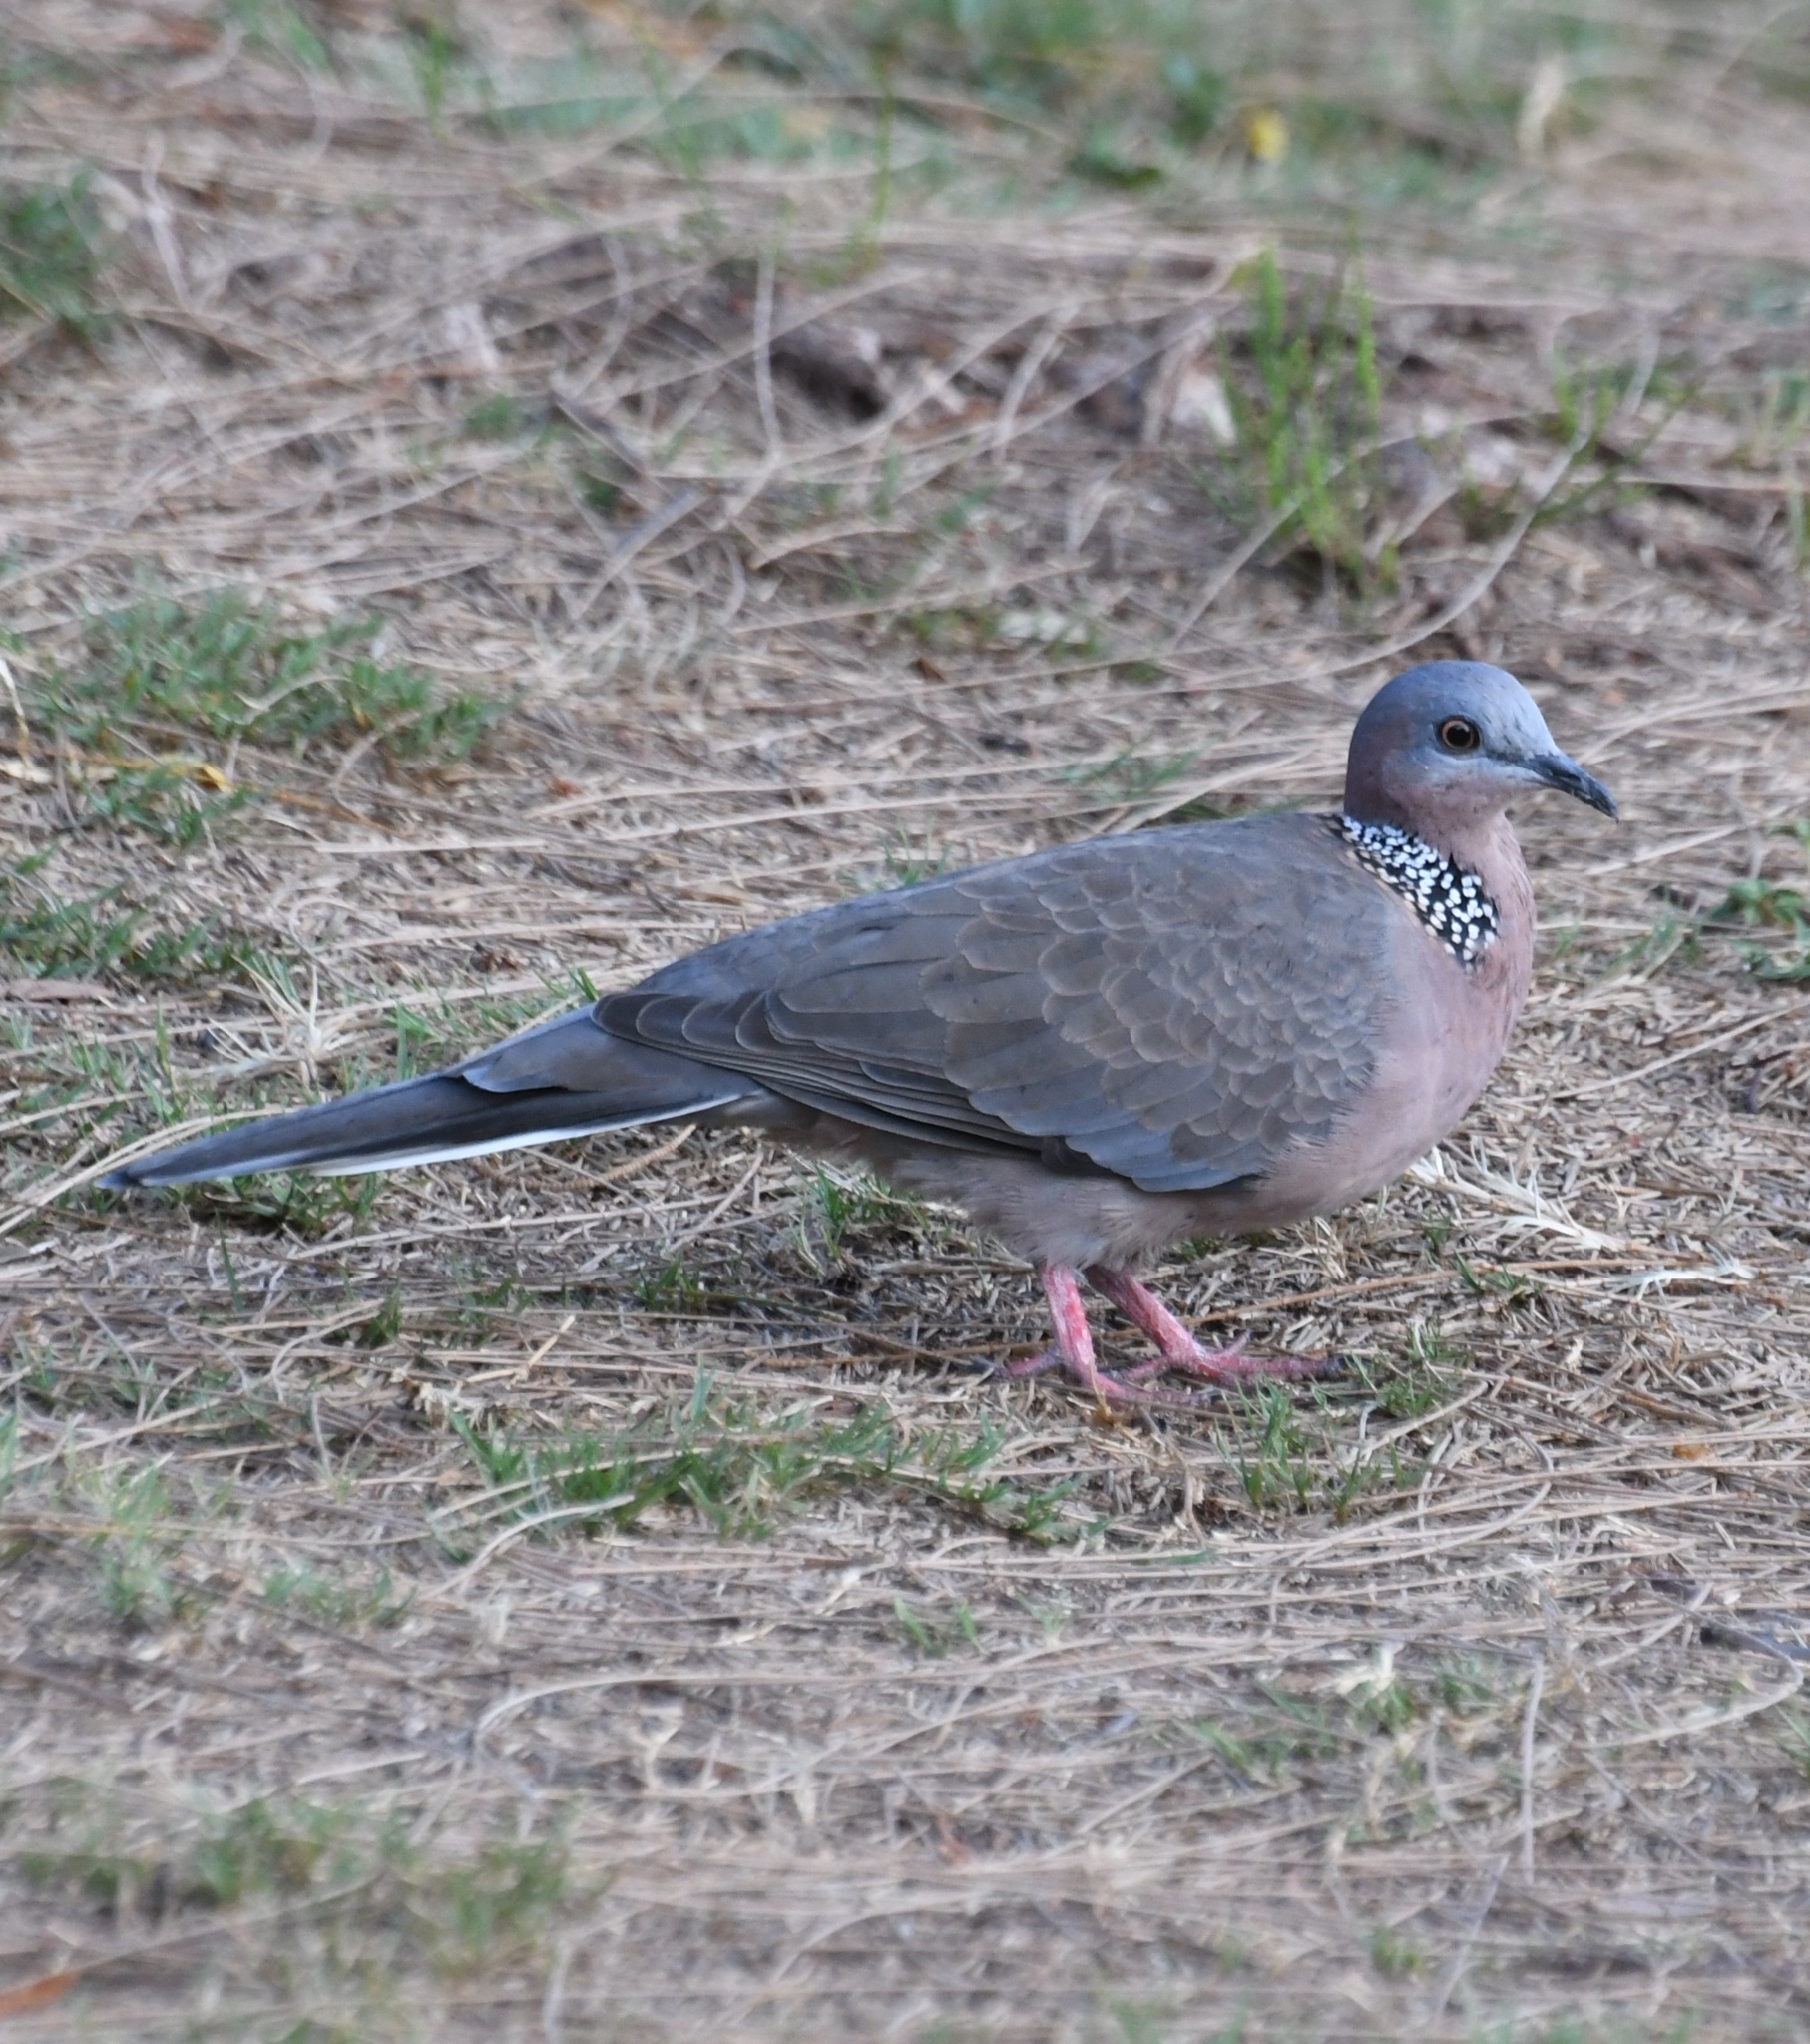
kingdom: Animalia
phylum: Chordata
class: Aves
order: Columbiformes
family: Columbidae
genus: Spilopelia
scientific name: Spilopelia chinensis
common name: Spotted dove
